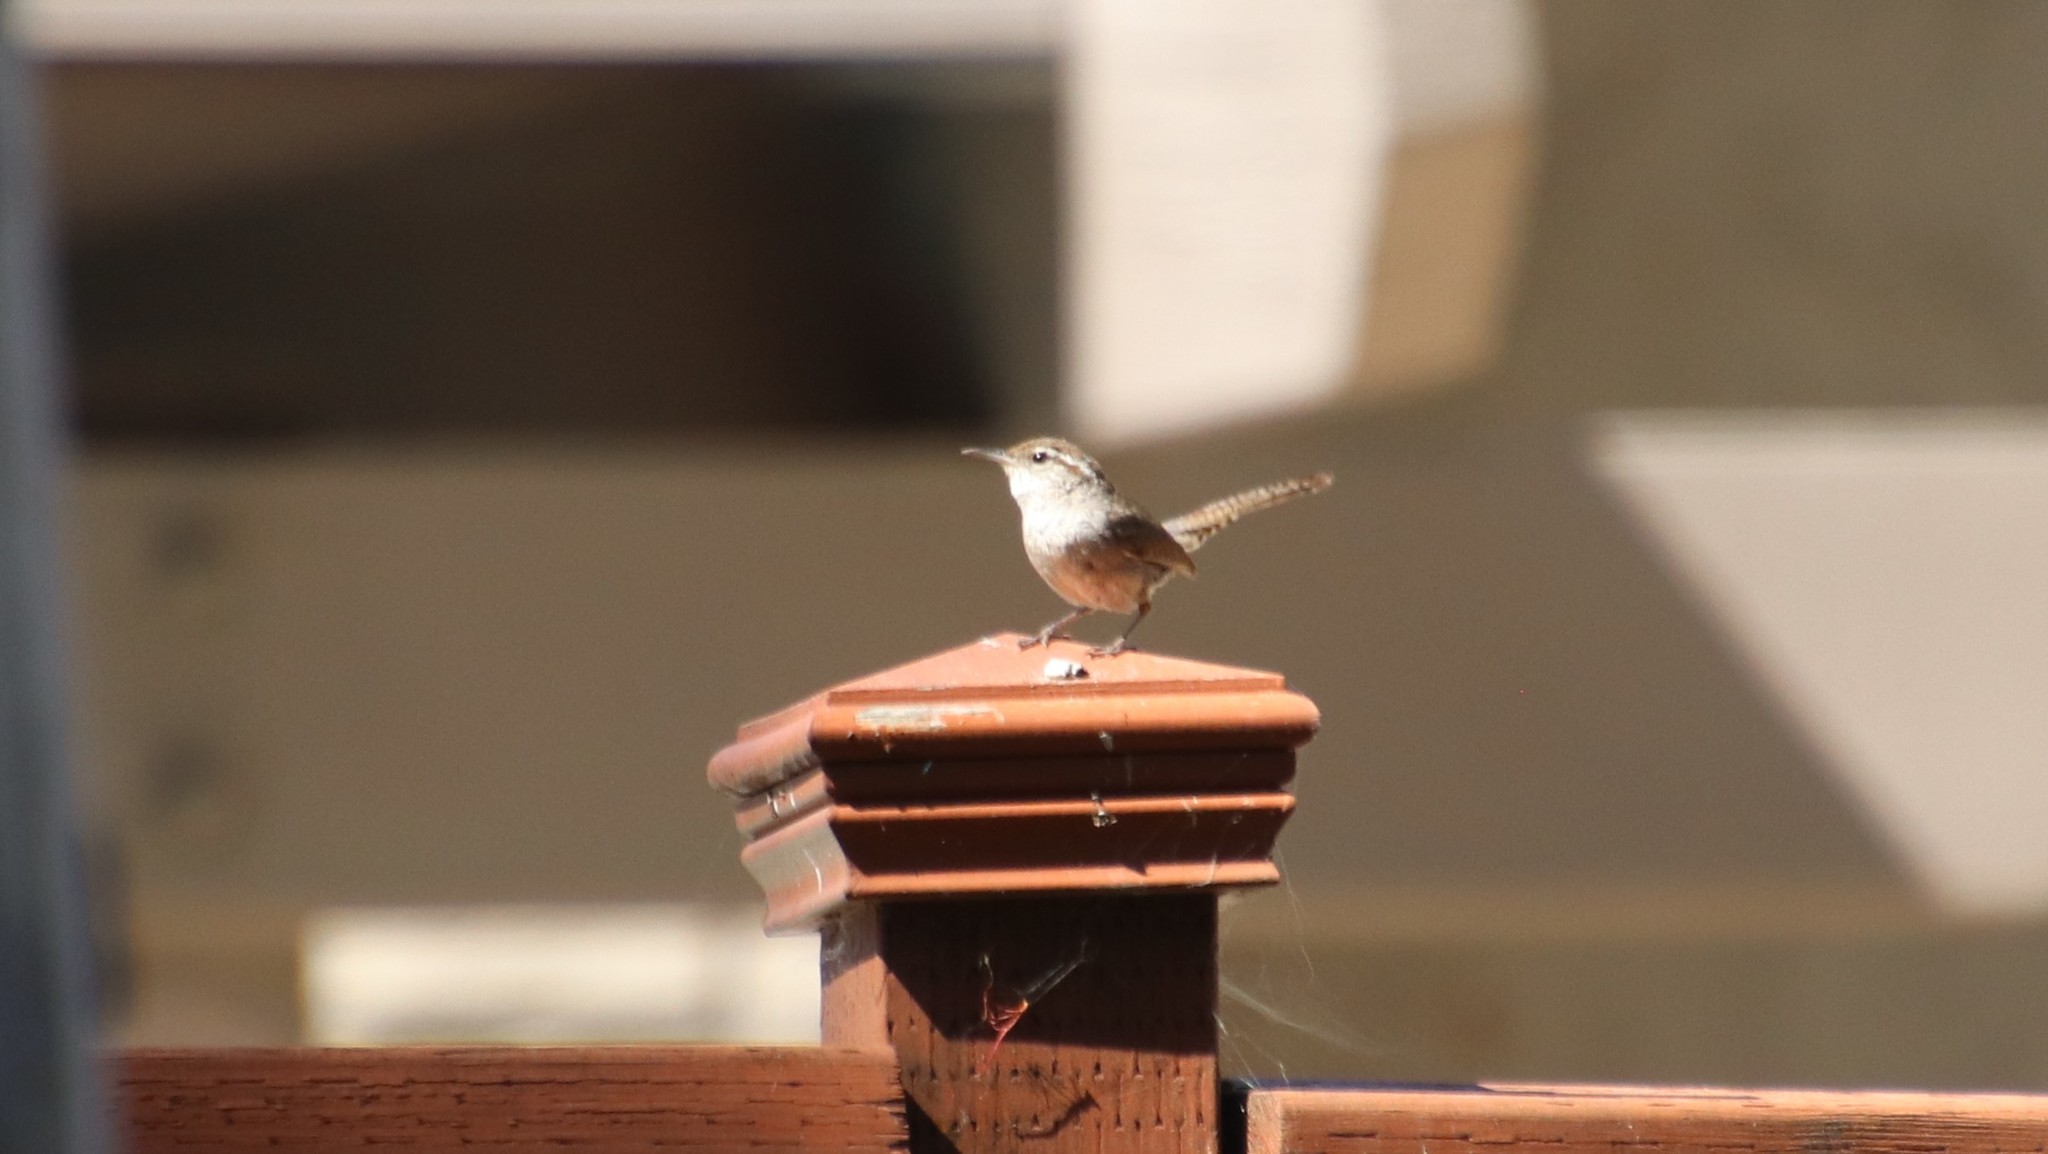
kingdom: Animalia
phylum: Chordata
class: Aves
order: Passeriformes
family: Troglodytidae
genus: Thryomanes
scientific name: Thryomanes bewickii
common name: Bewick's wren
